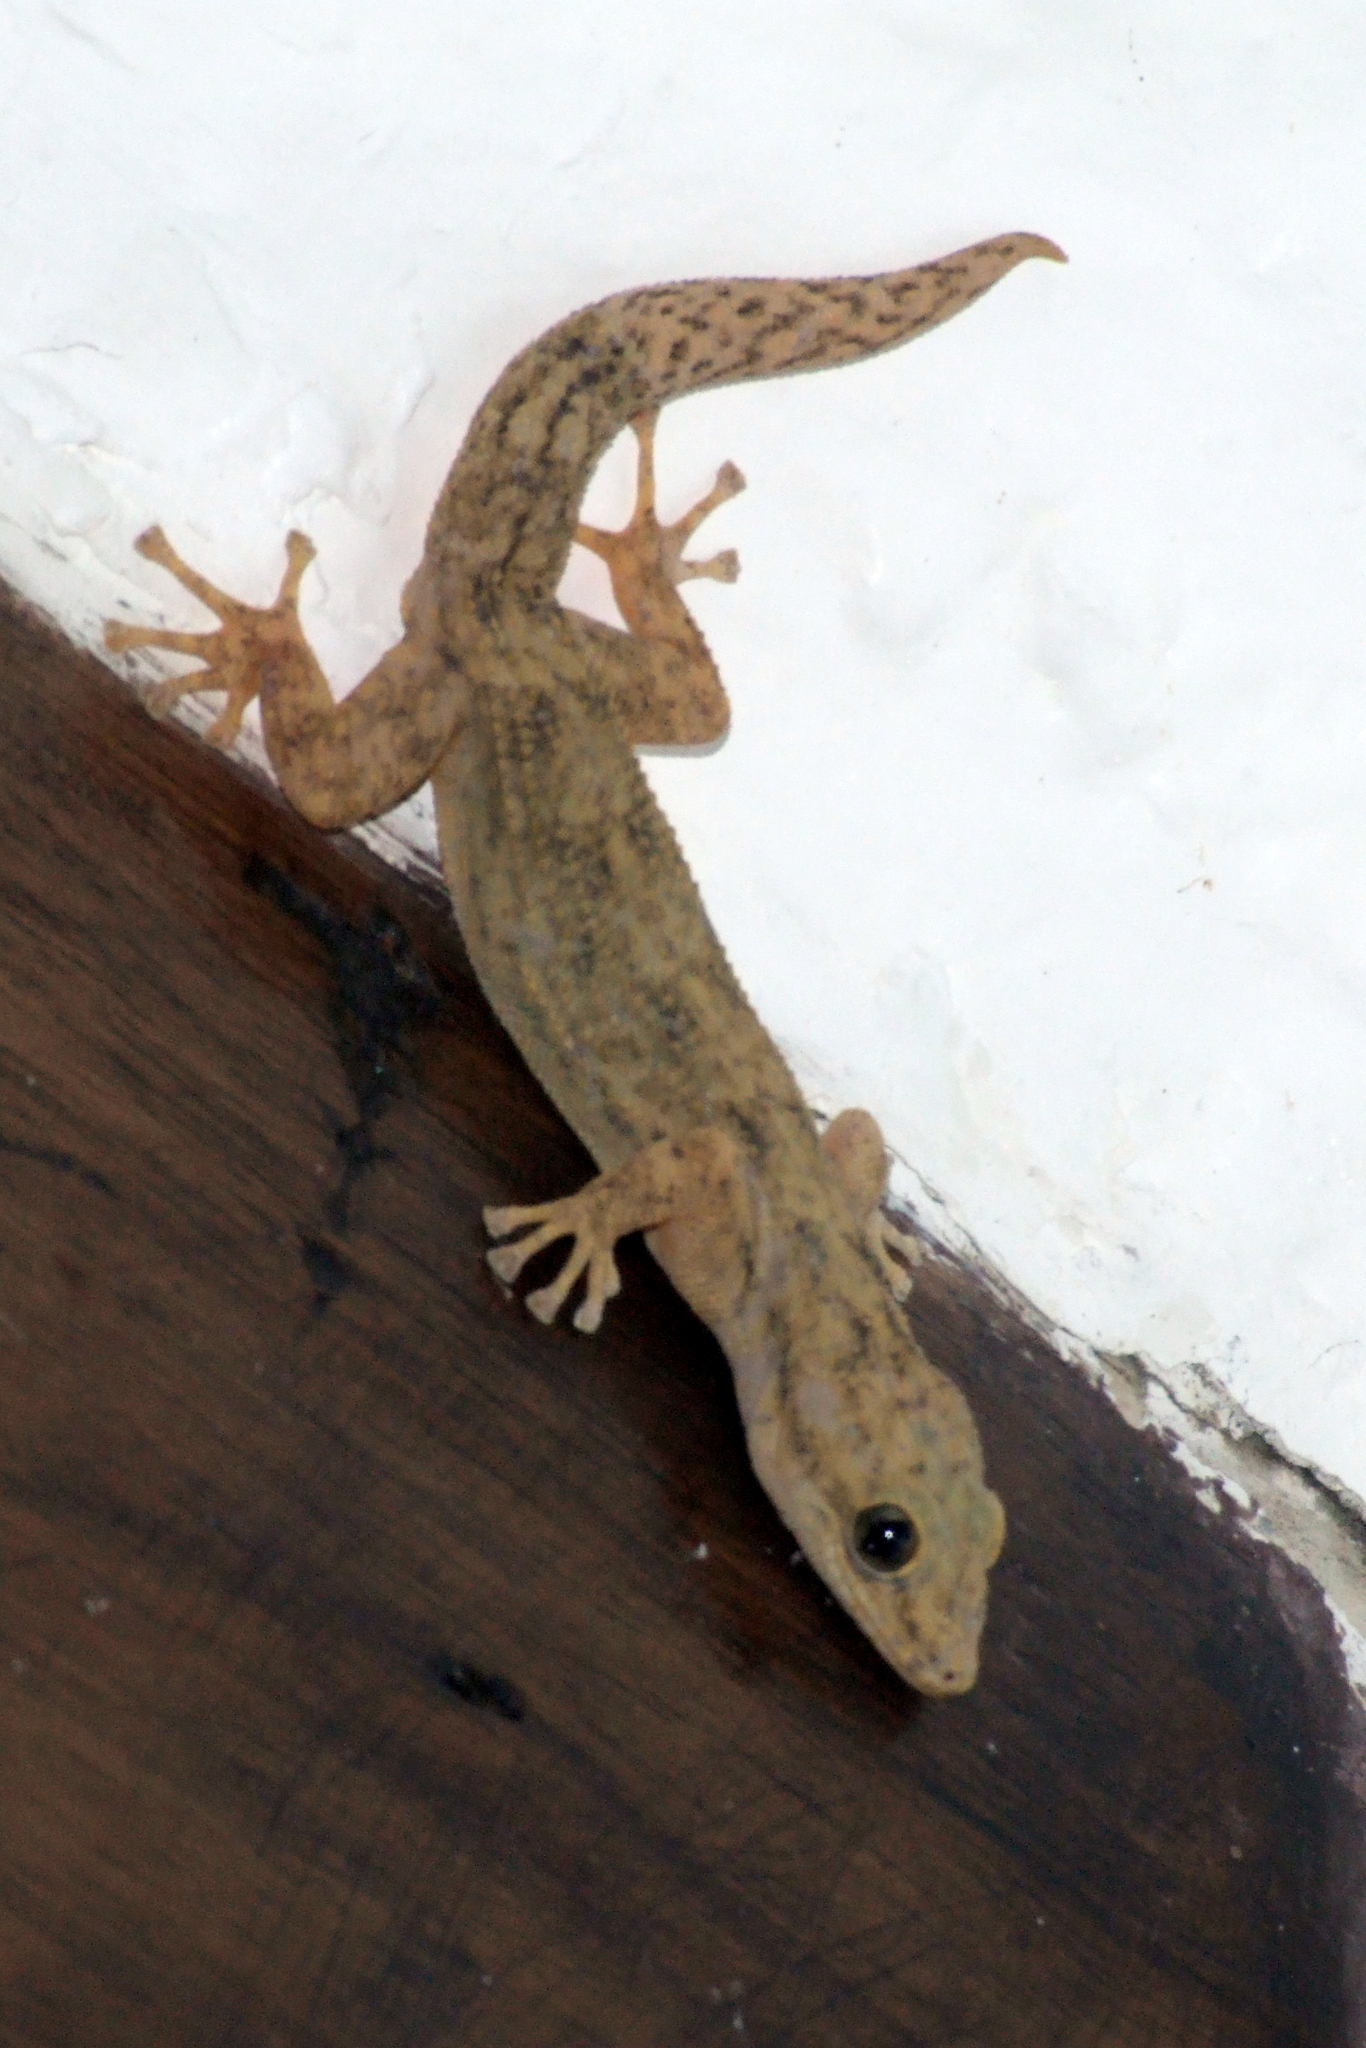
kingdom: Animalia
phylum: Chordata
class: Squamata
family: Phyllodactylidae
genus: Phyllodactylus
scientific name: Phyllodactylus reissii
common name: Peters' leaf-toed gecko
